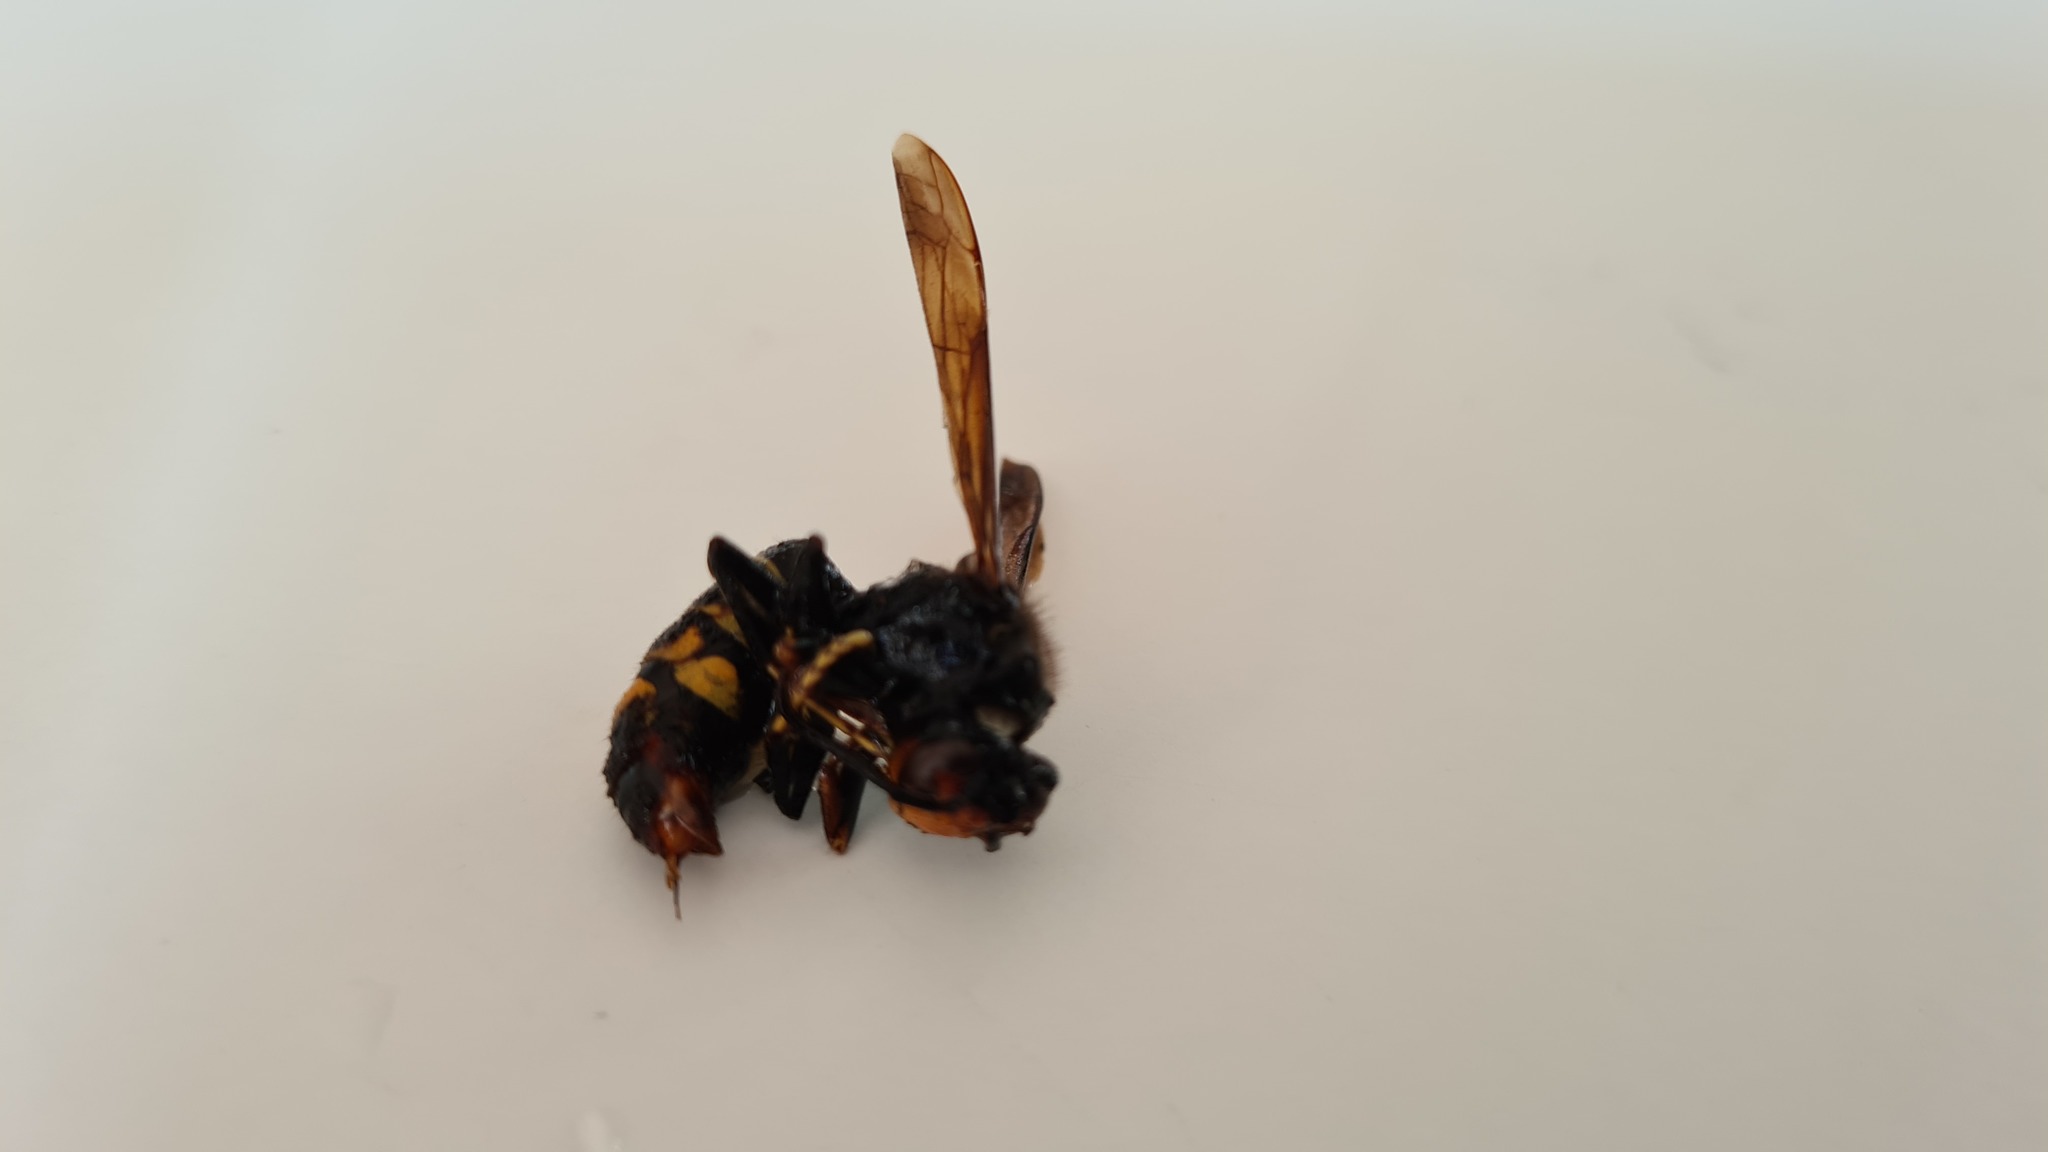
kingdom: Animalia
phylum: Arthropoda
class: Insecta
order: Hymenoptera
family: Vespidae
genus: Vespa
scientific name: Vespa velutina
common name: Asian hornet
